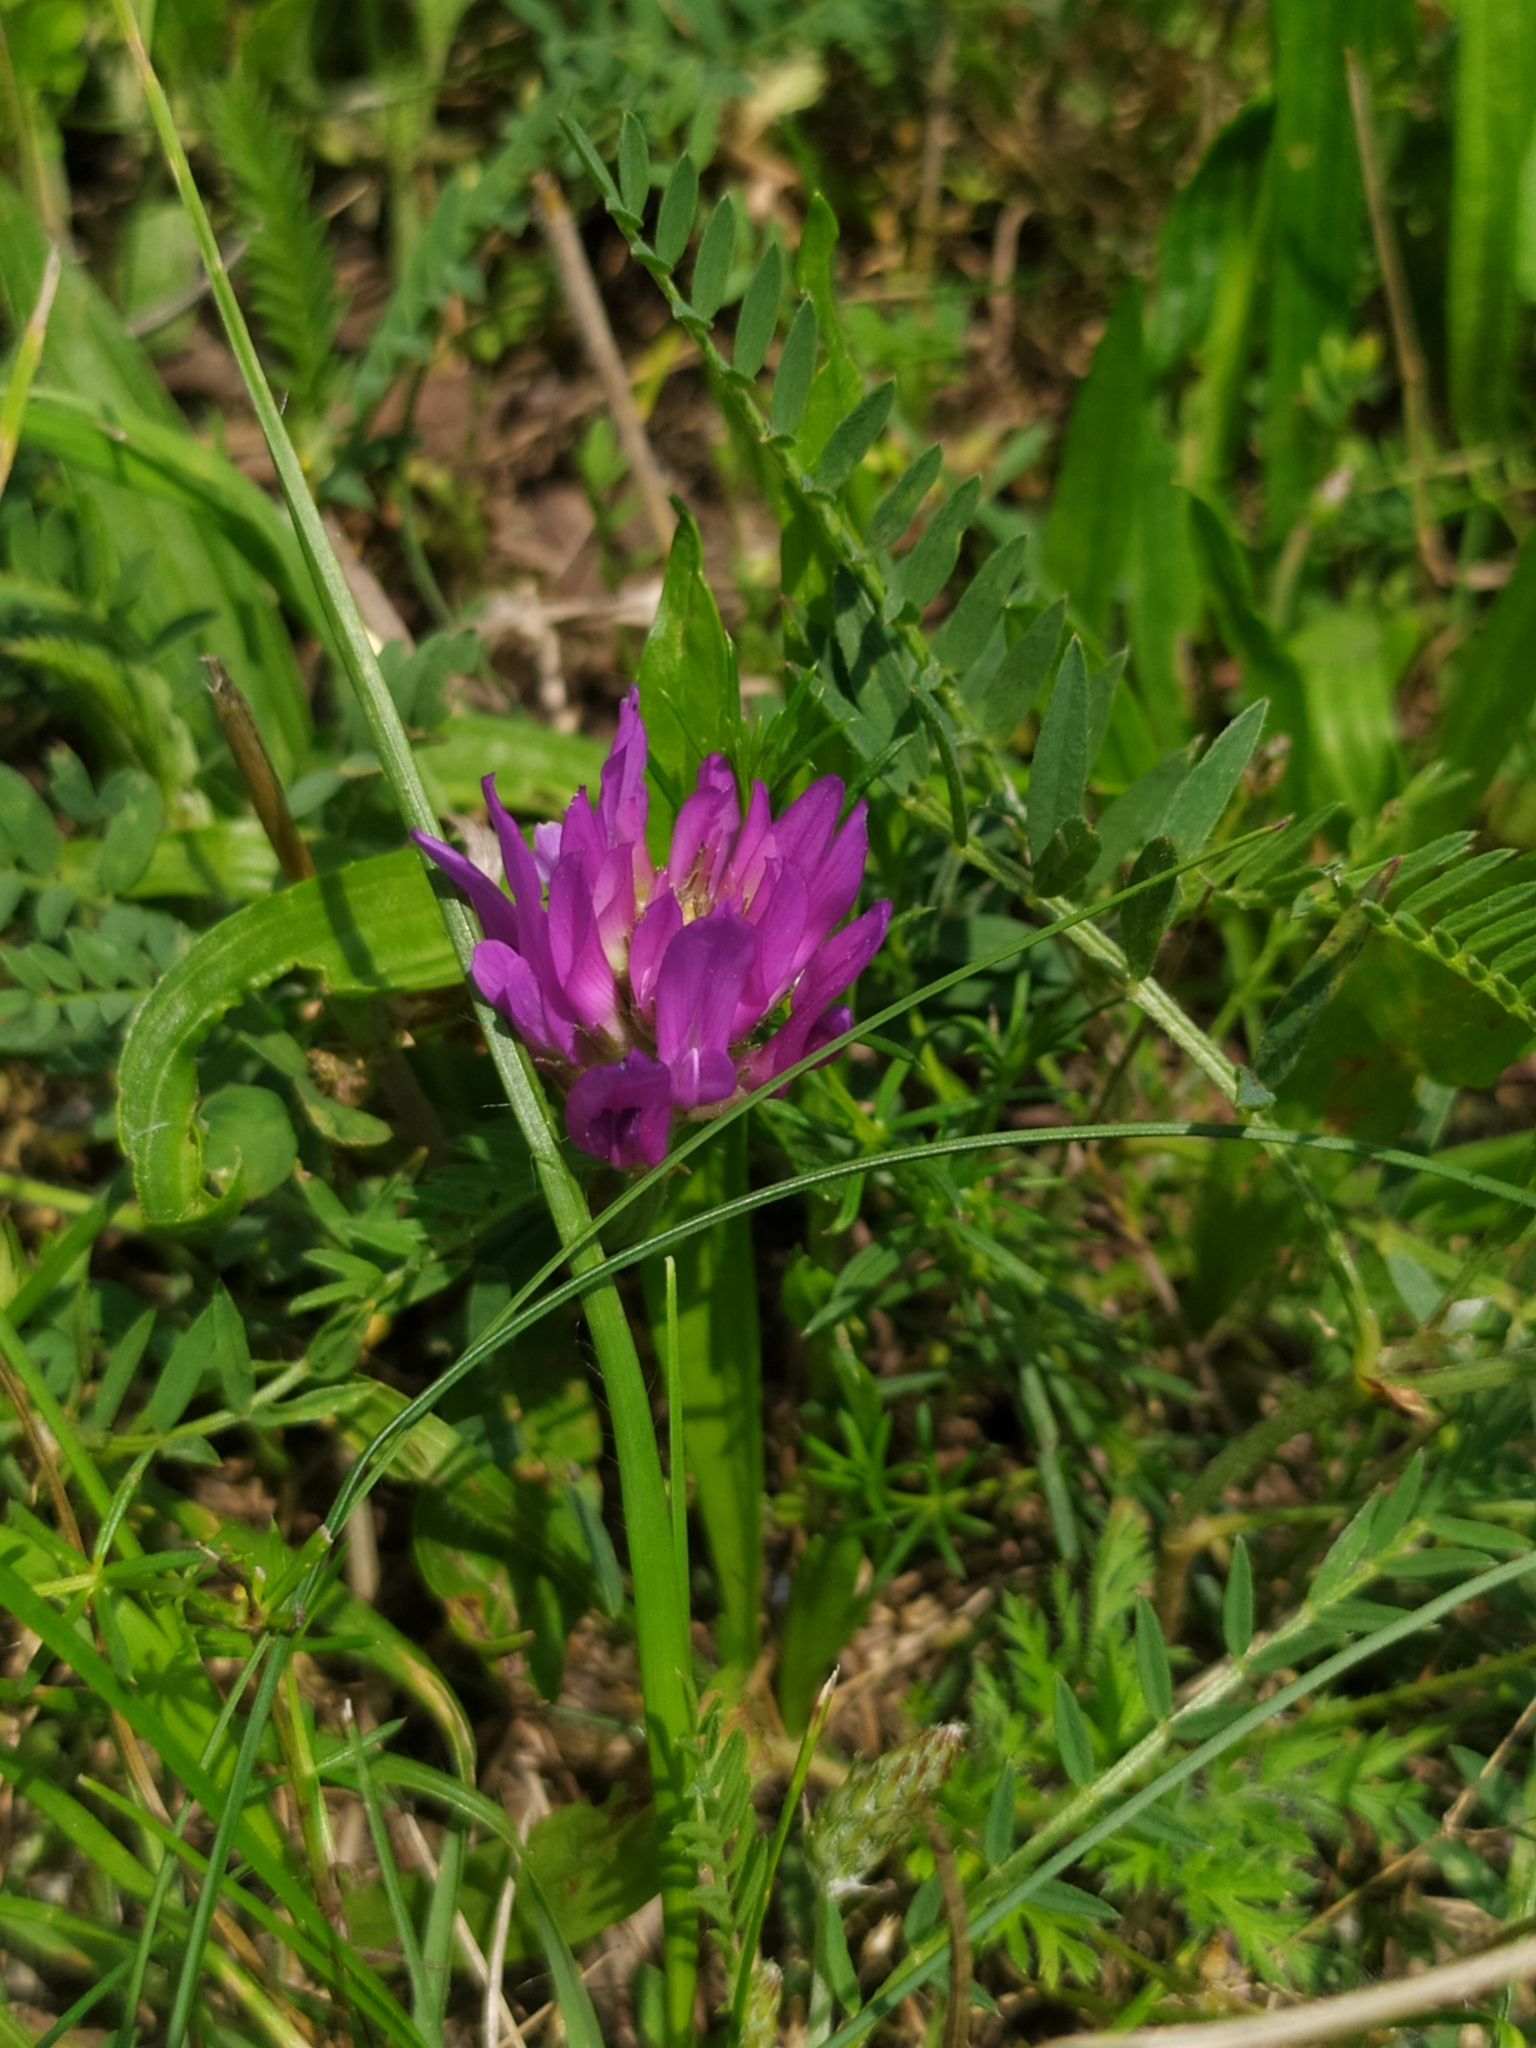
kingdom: Plantae
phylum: Tracheophyta
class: Magnoliopsida
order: Fabales
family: Fabaceae
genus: Astragalus
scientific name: Astragalus onobrychis
